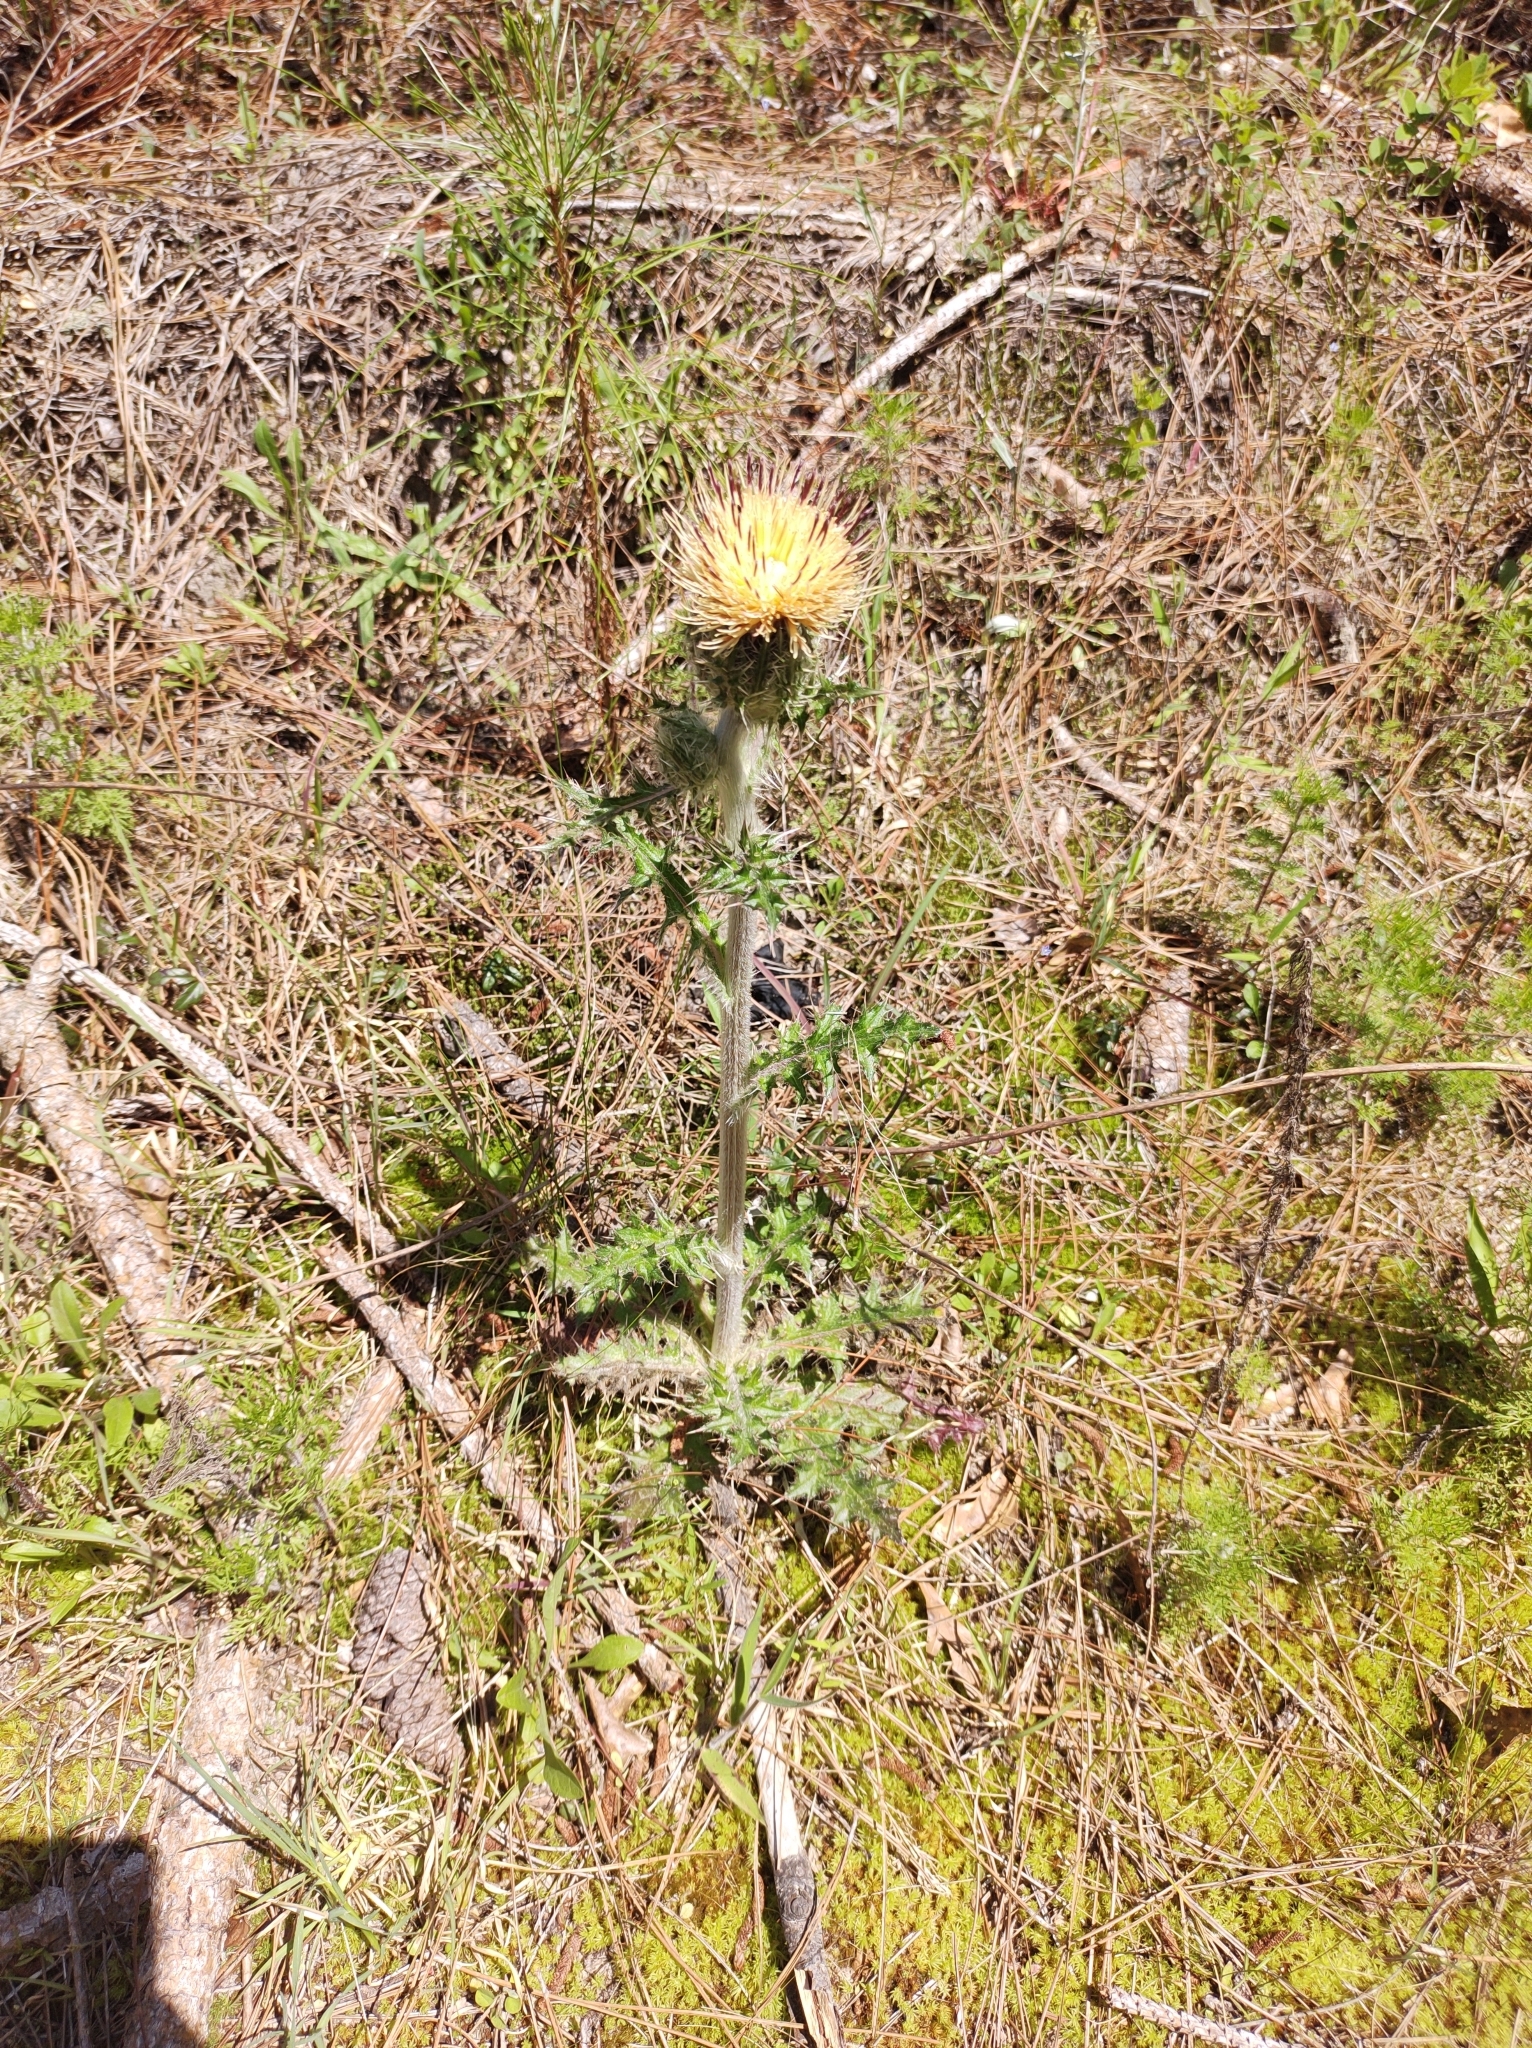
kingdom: Plantae
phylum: Tracheophyta
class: Magnoliopsida
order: Asterales
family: Asteraceae
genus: Cirsium
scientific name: Cirsium horridulum
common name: Bristly thistle
